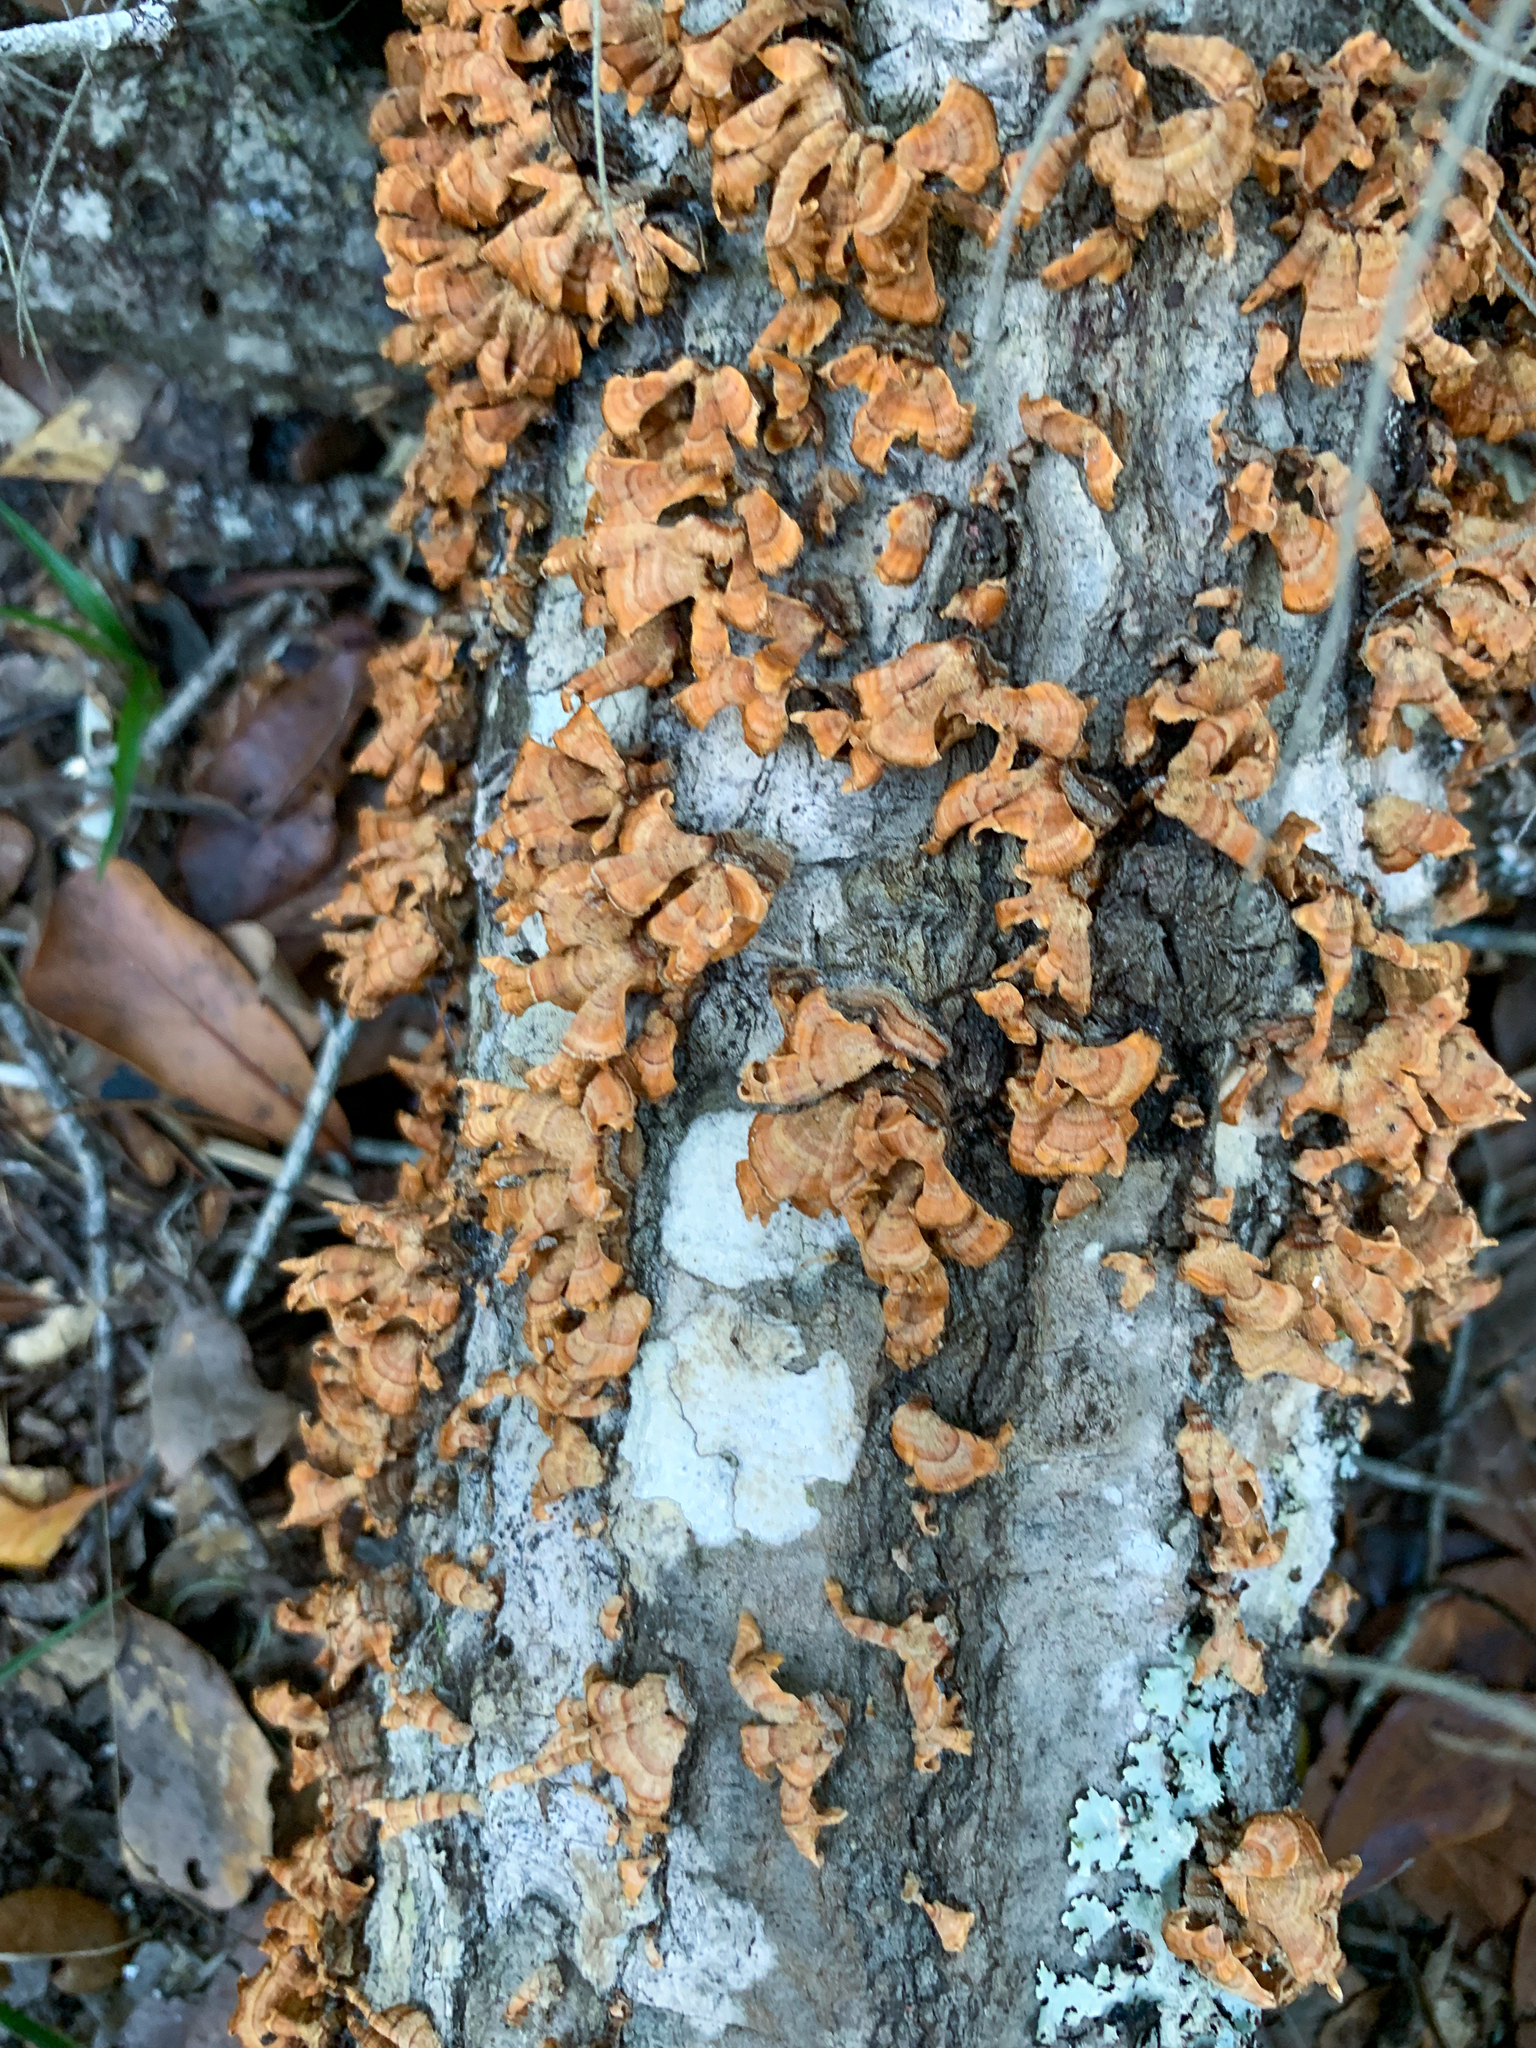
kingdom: Fungi
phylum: Basidiomycota
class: Agaricomycetes
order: Russulales
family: Stereaceae
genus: Stereum
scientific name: Stereum complicatum
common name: Crowded parchment
